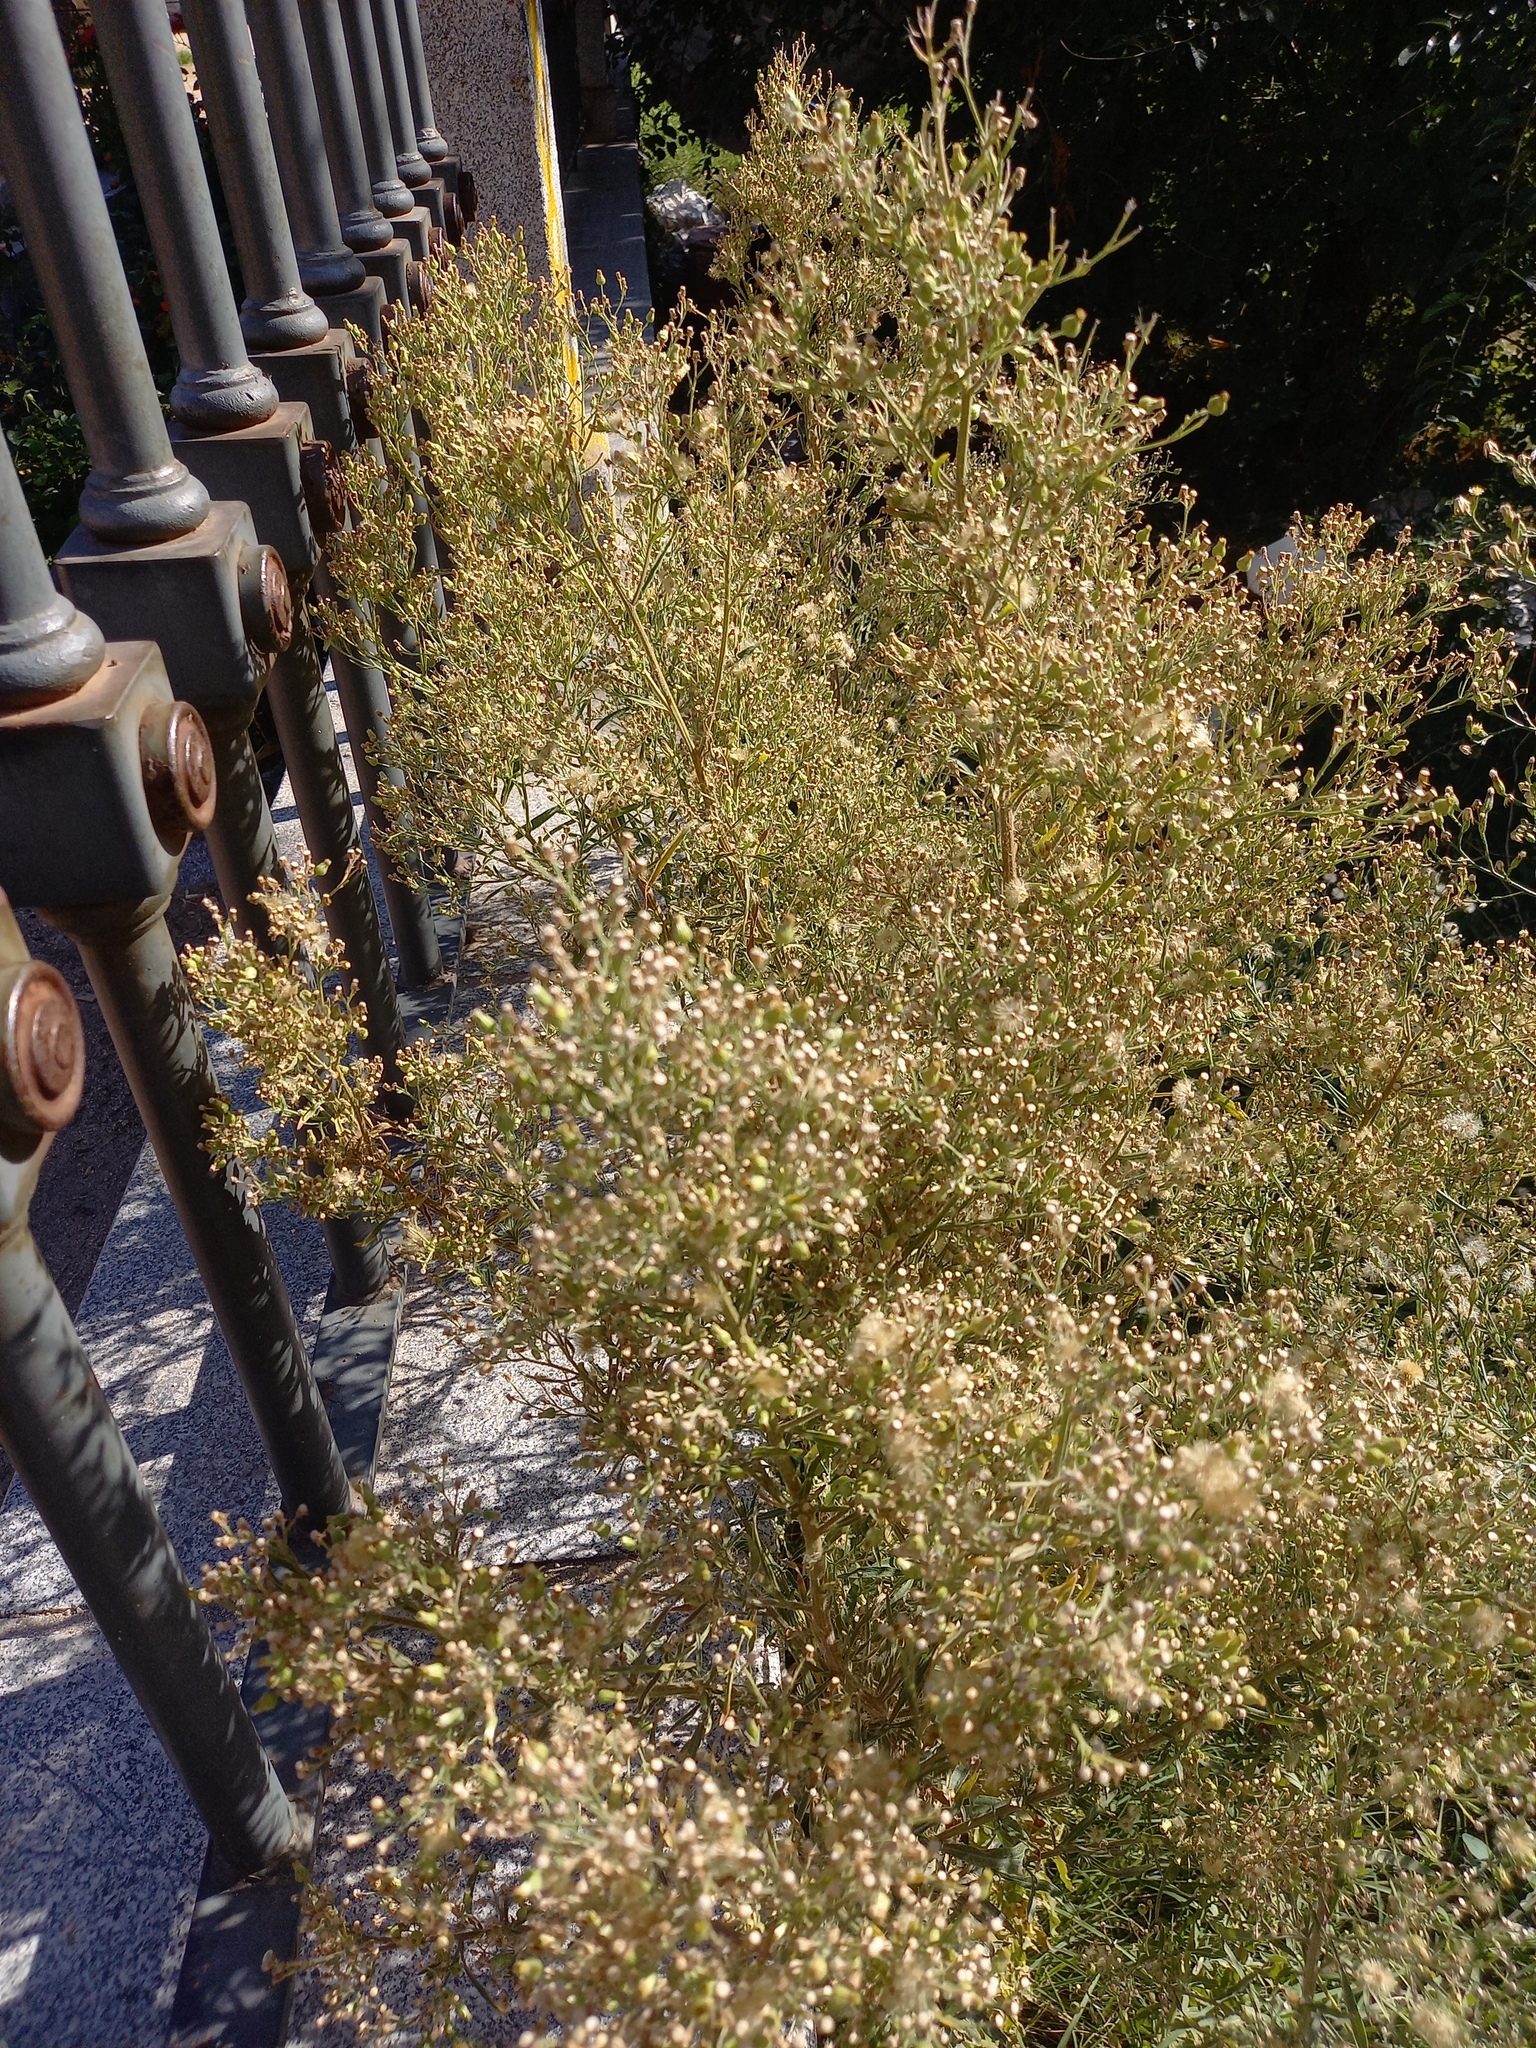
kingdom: Plantae
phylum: Tracheophyta
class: Magnoliopsida
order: Asterales
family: Asteraceae
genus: Erigeron
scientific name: Erigeron sumatrensis
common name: Daisy
